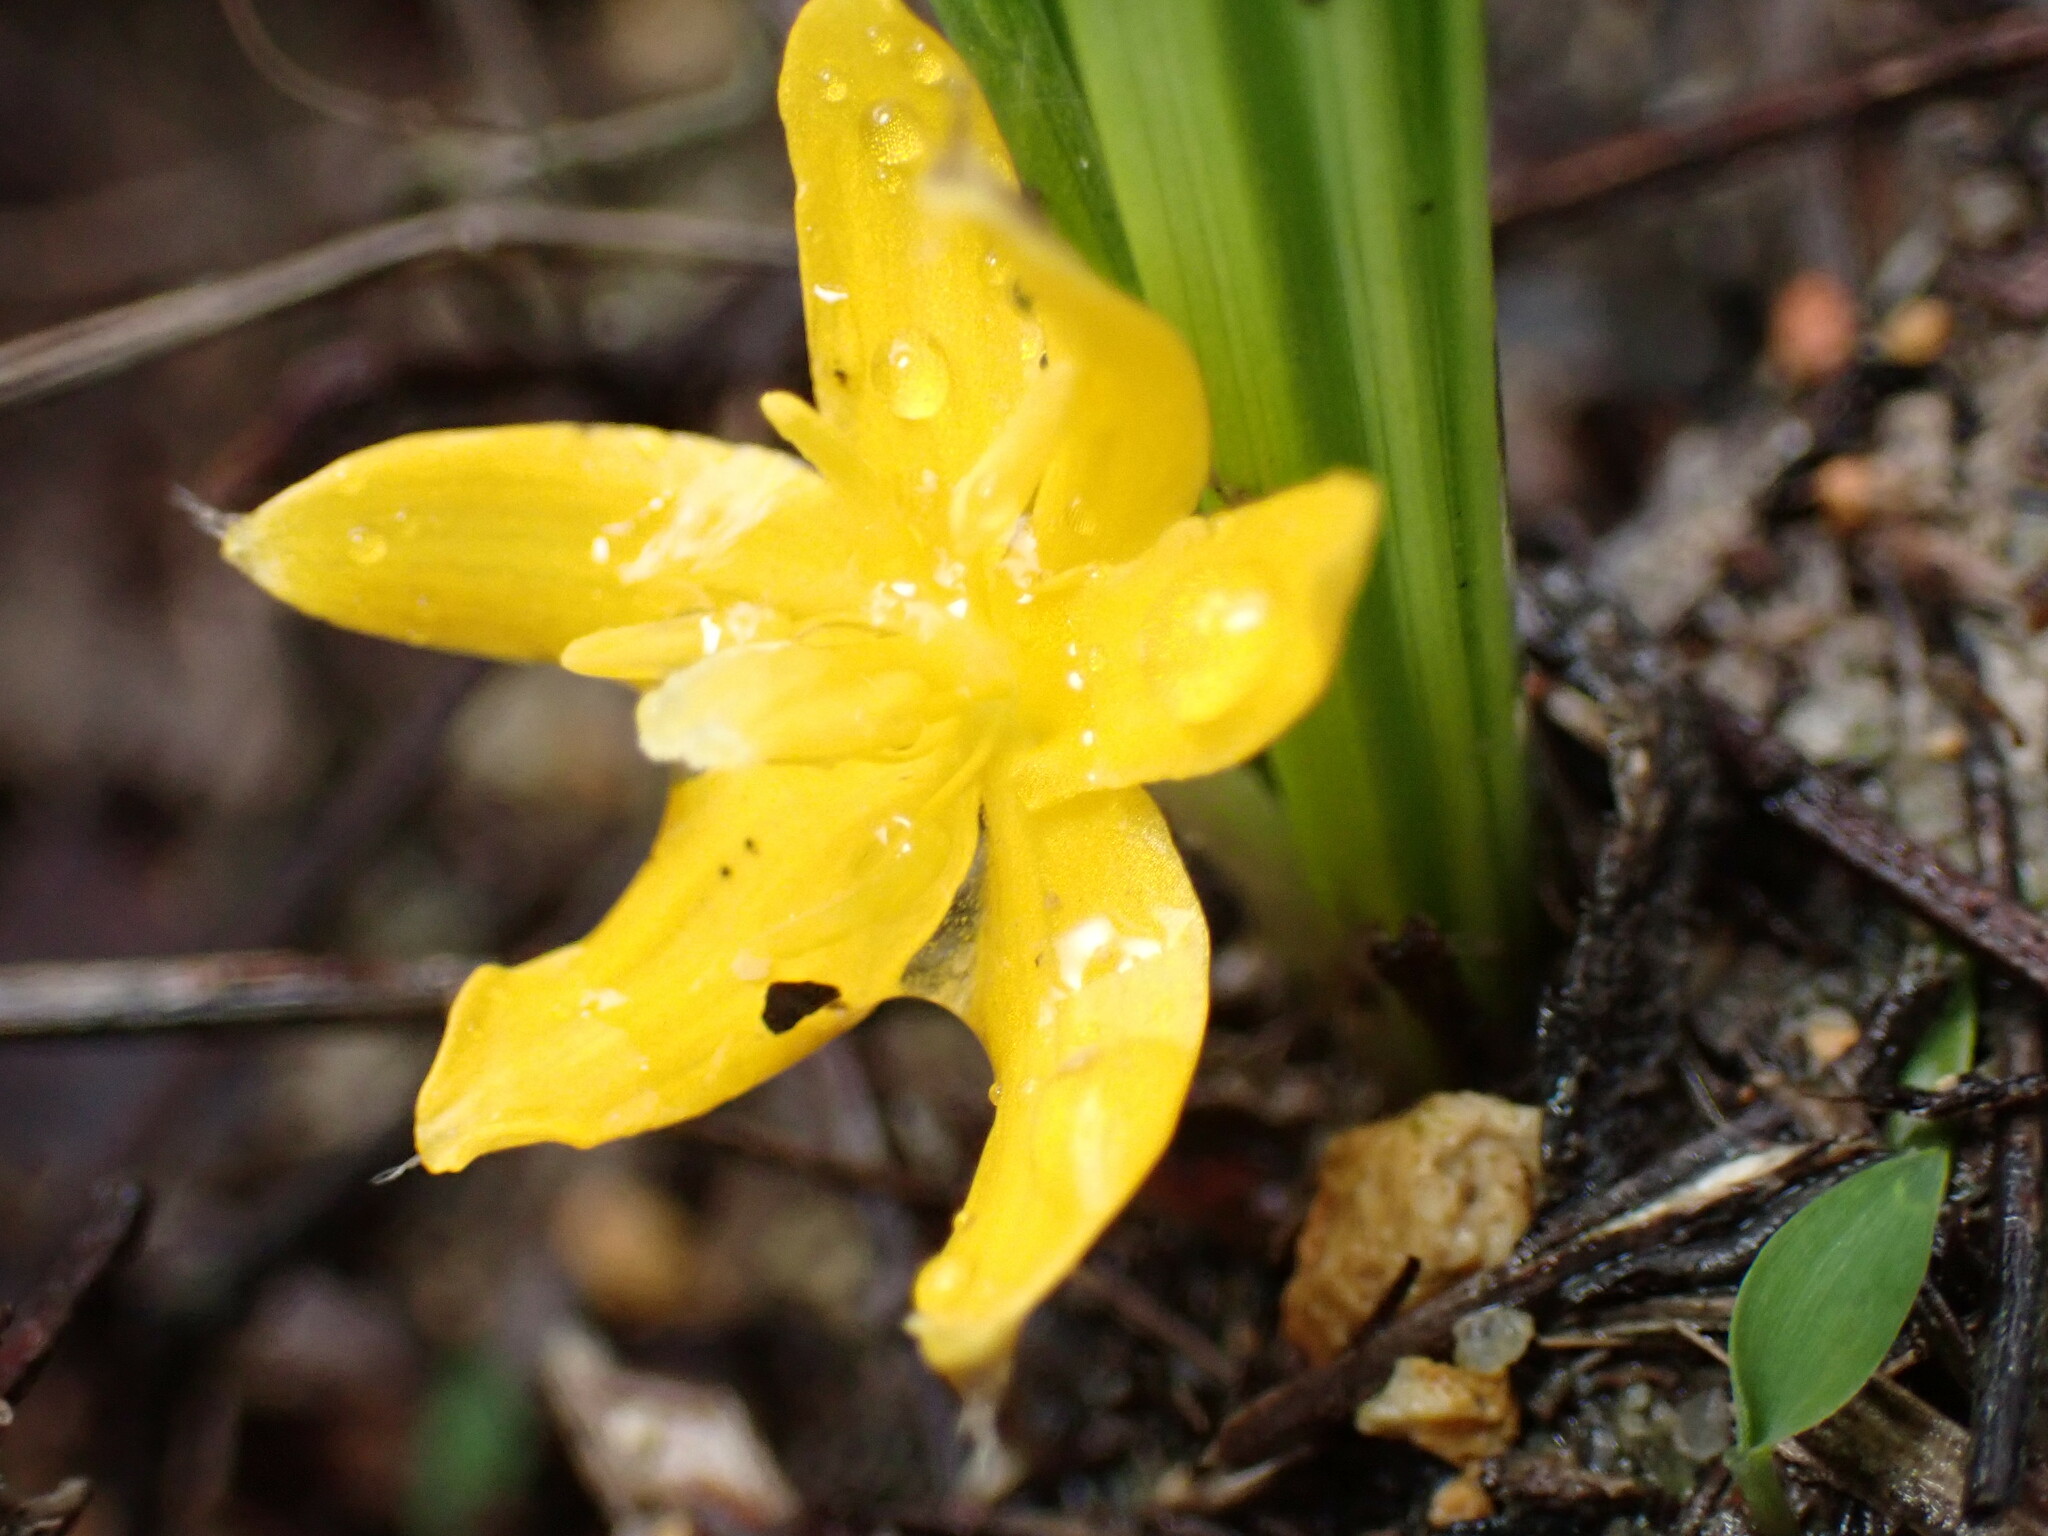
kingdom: Plantae
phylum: Tracheophyta
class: Liliopsida
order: Asparagales
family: Hypoxidaceae
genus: Curculigo
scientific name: Curculigo orchioides
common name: Golden eye-grass
